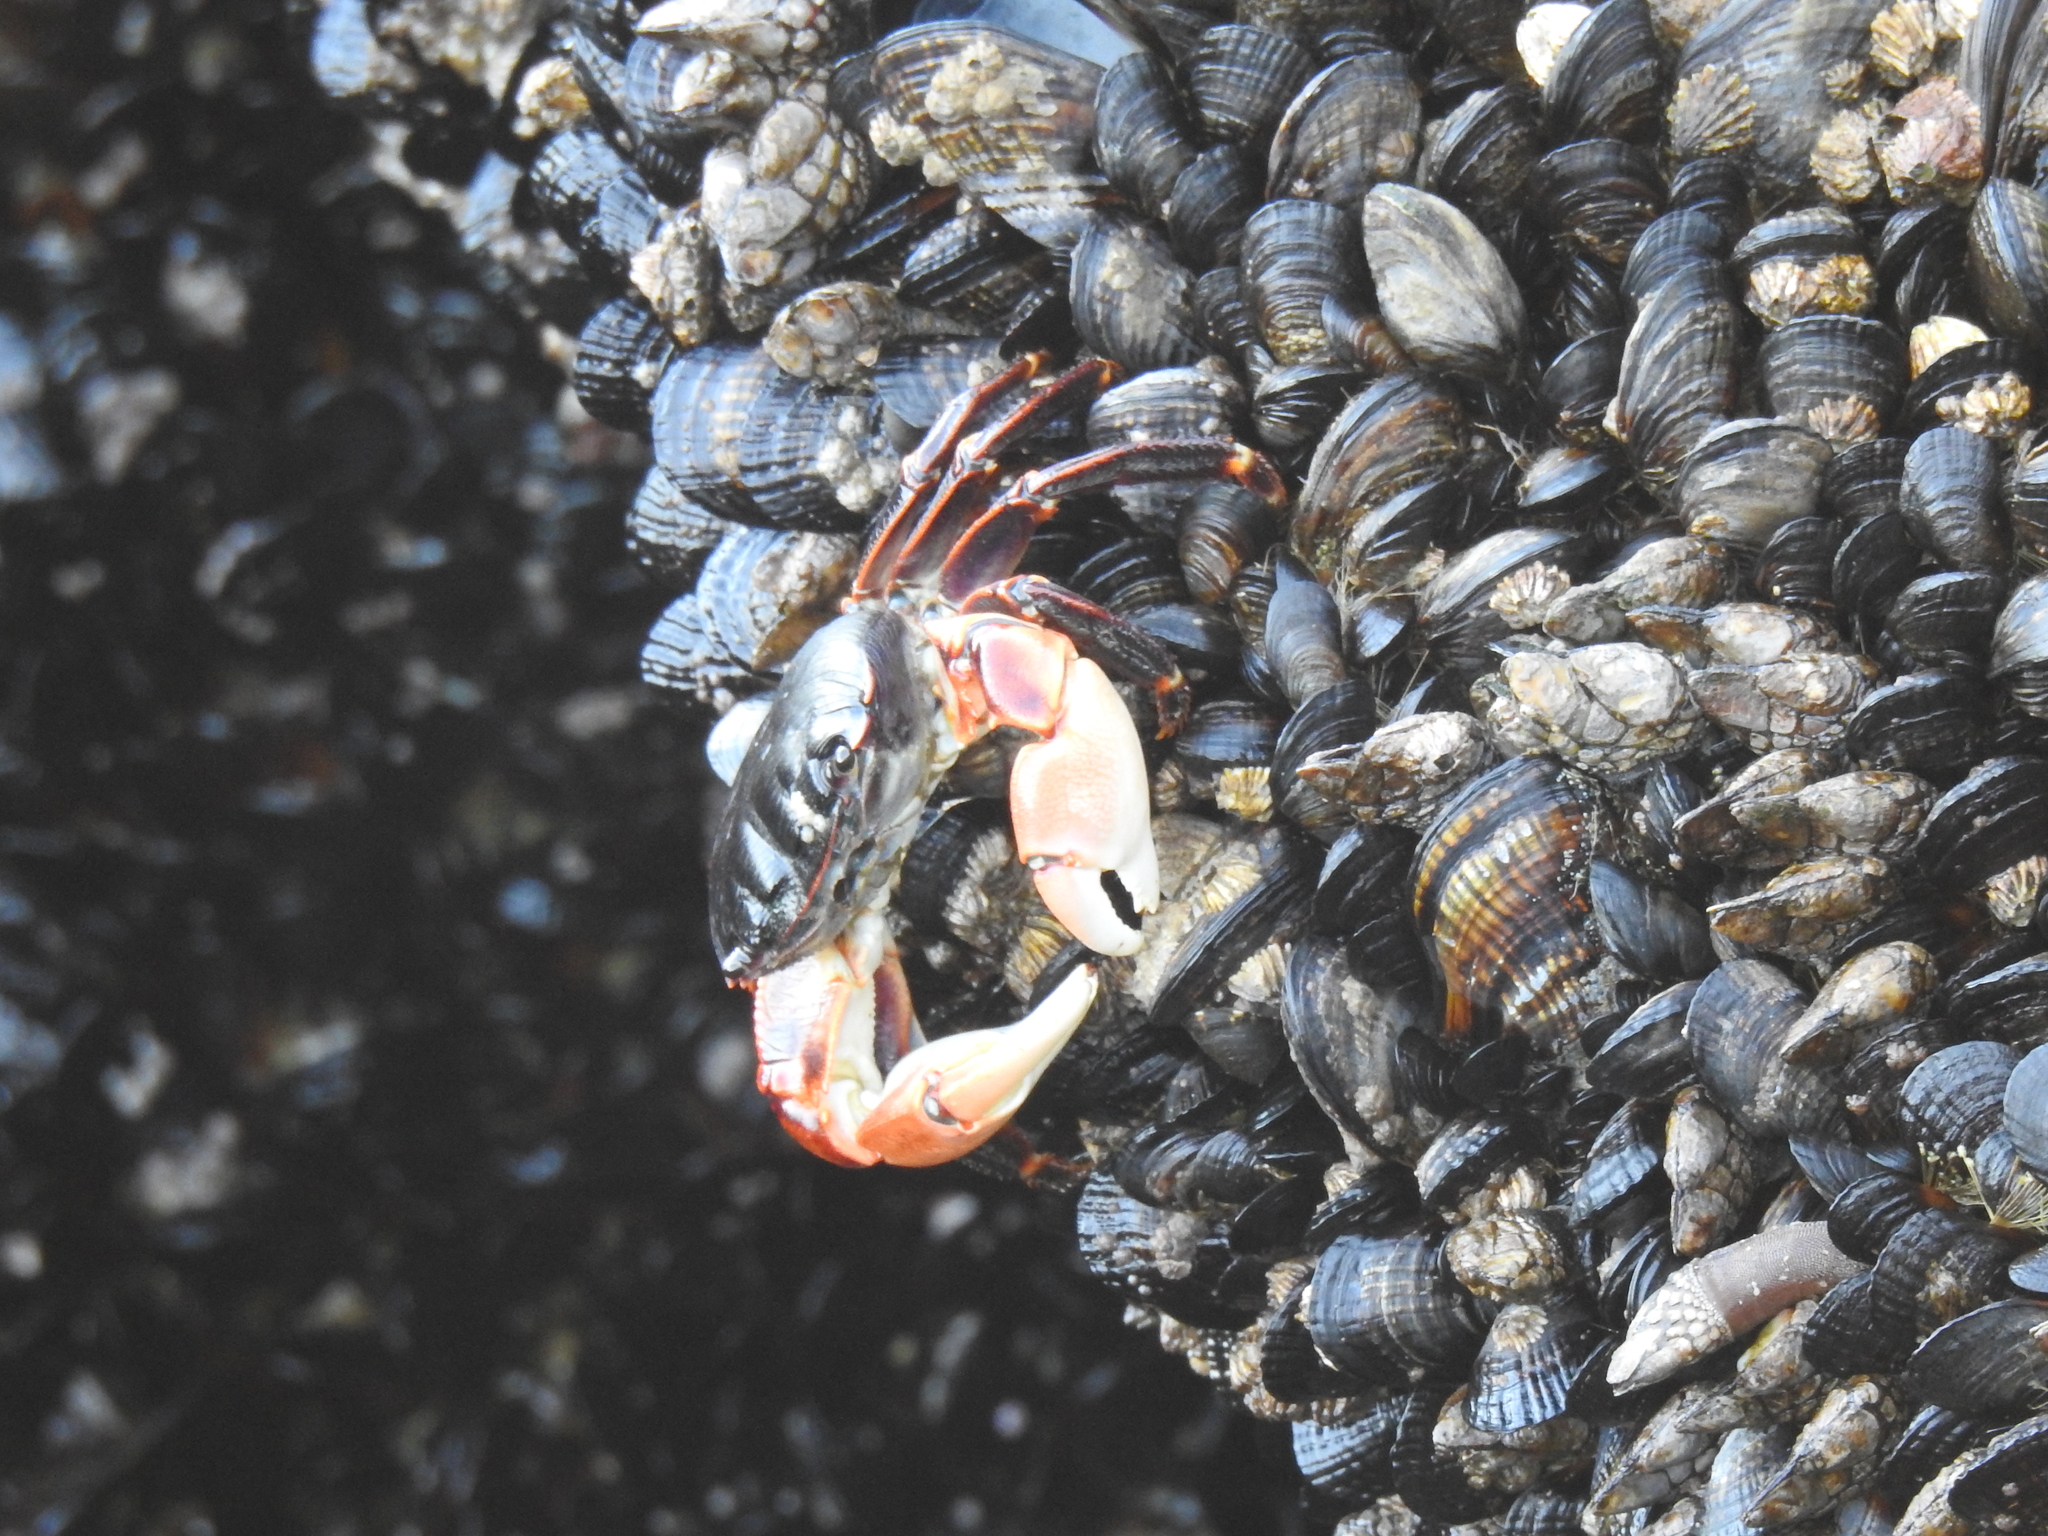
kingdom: Animalia
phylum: Arthropoda
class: Malacostraca
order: Decapoda
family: Grapsidae
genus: Pachygrapsus
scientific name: Pachygrapsus crassipes
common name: Striped shore crab
